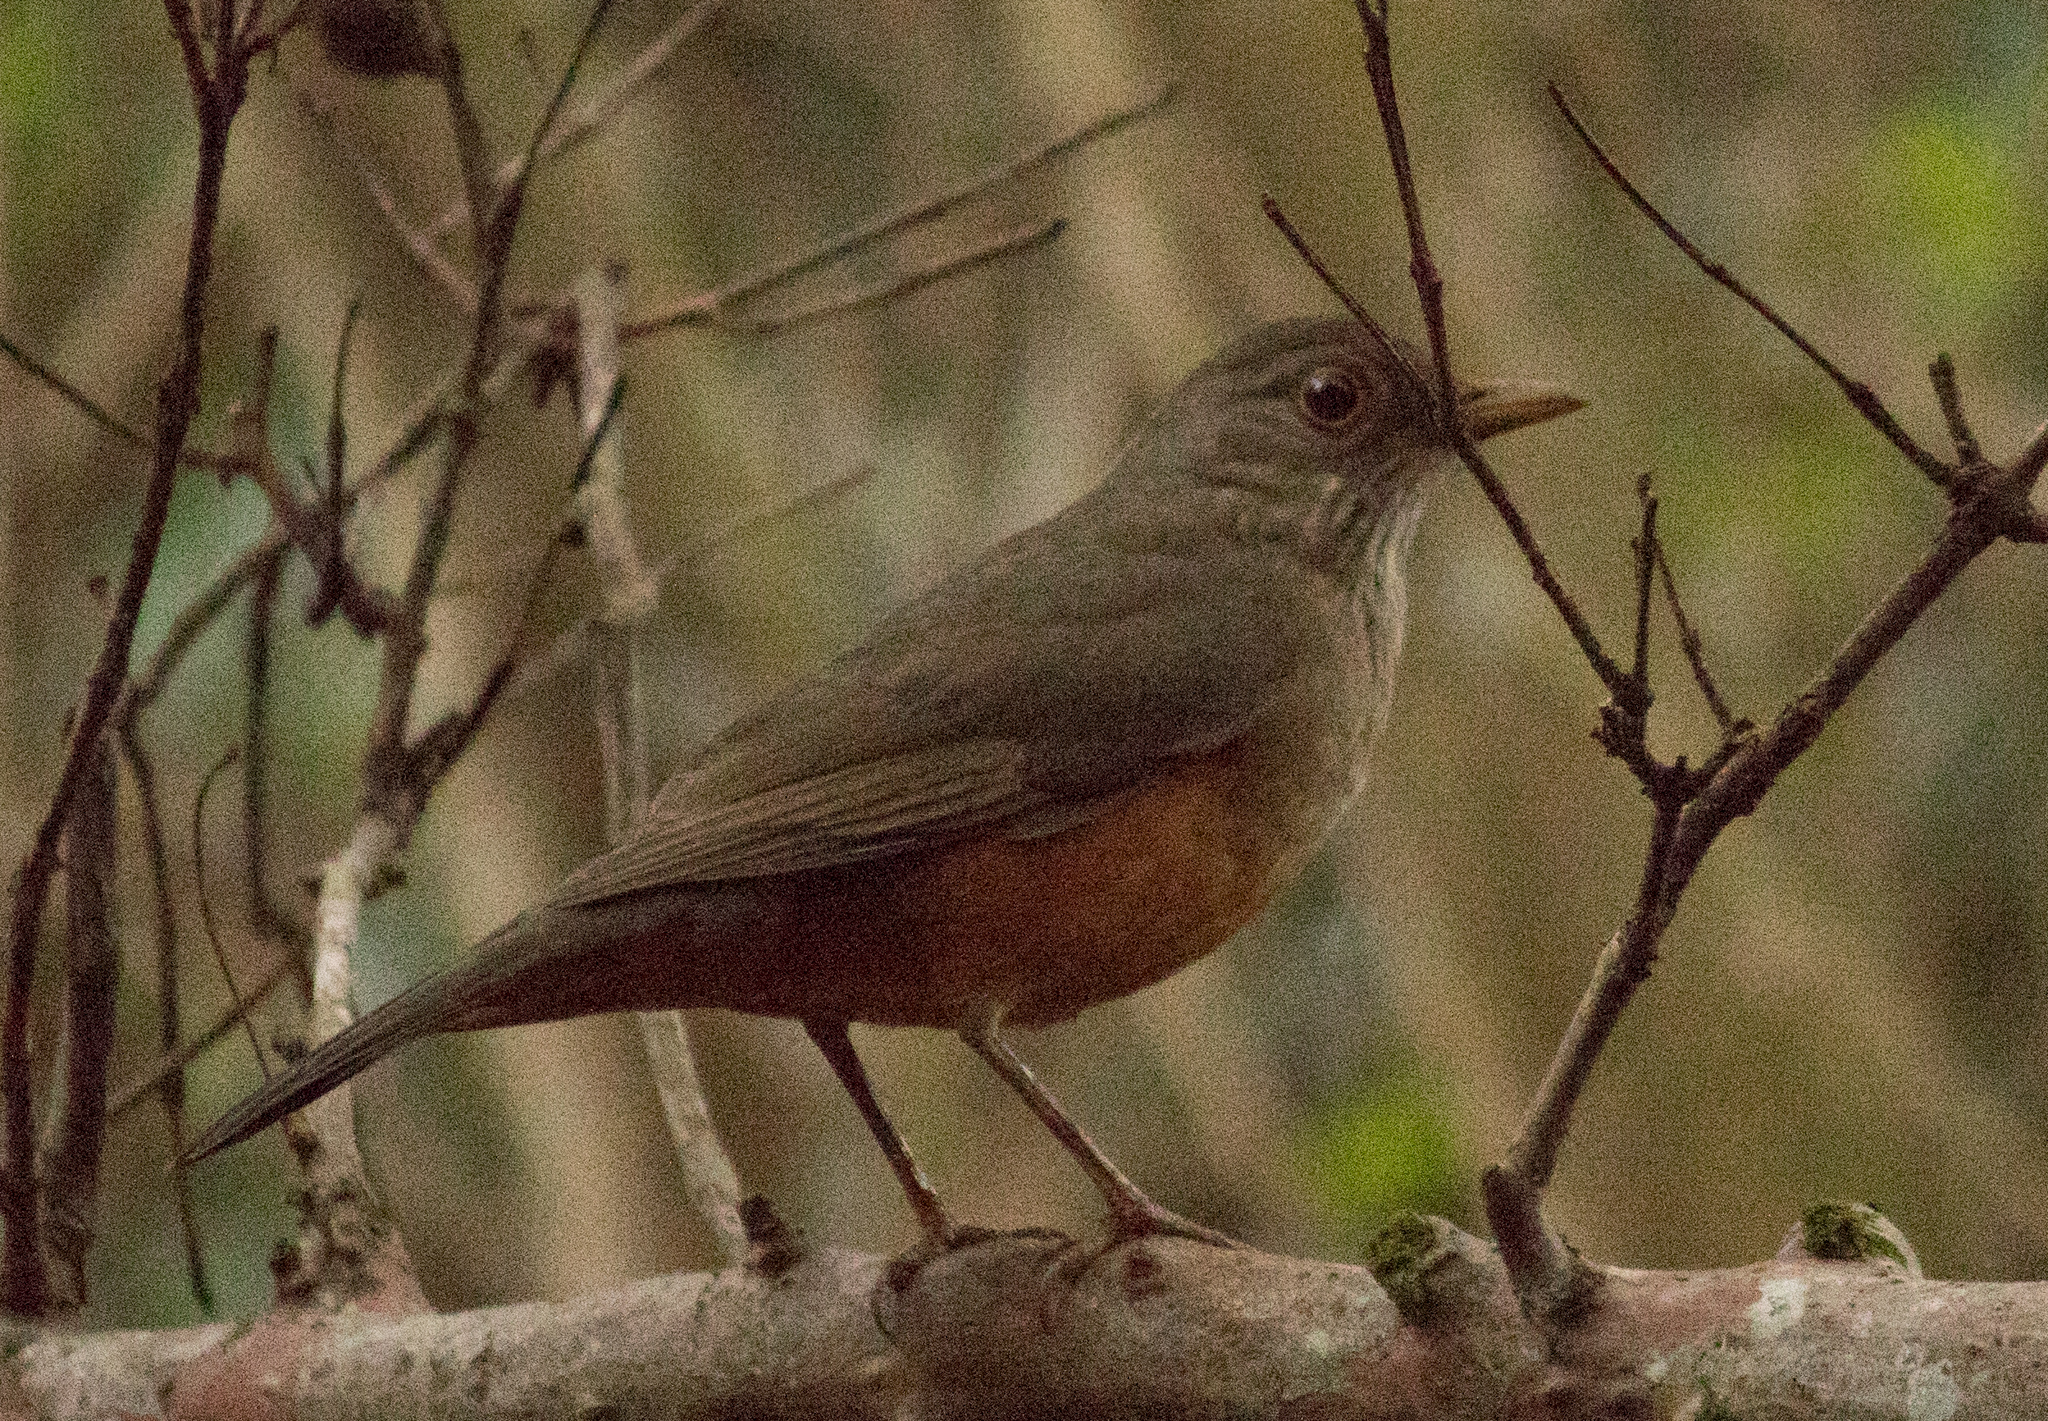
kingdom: Animalia
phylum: Chordata
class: Aves
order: Passeriformes
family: Turdidae
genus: Turdus
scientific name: Turdus rufiventris
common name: Rufous-bellied thrush
